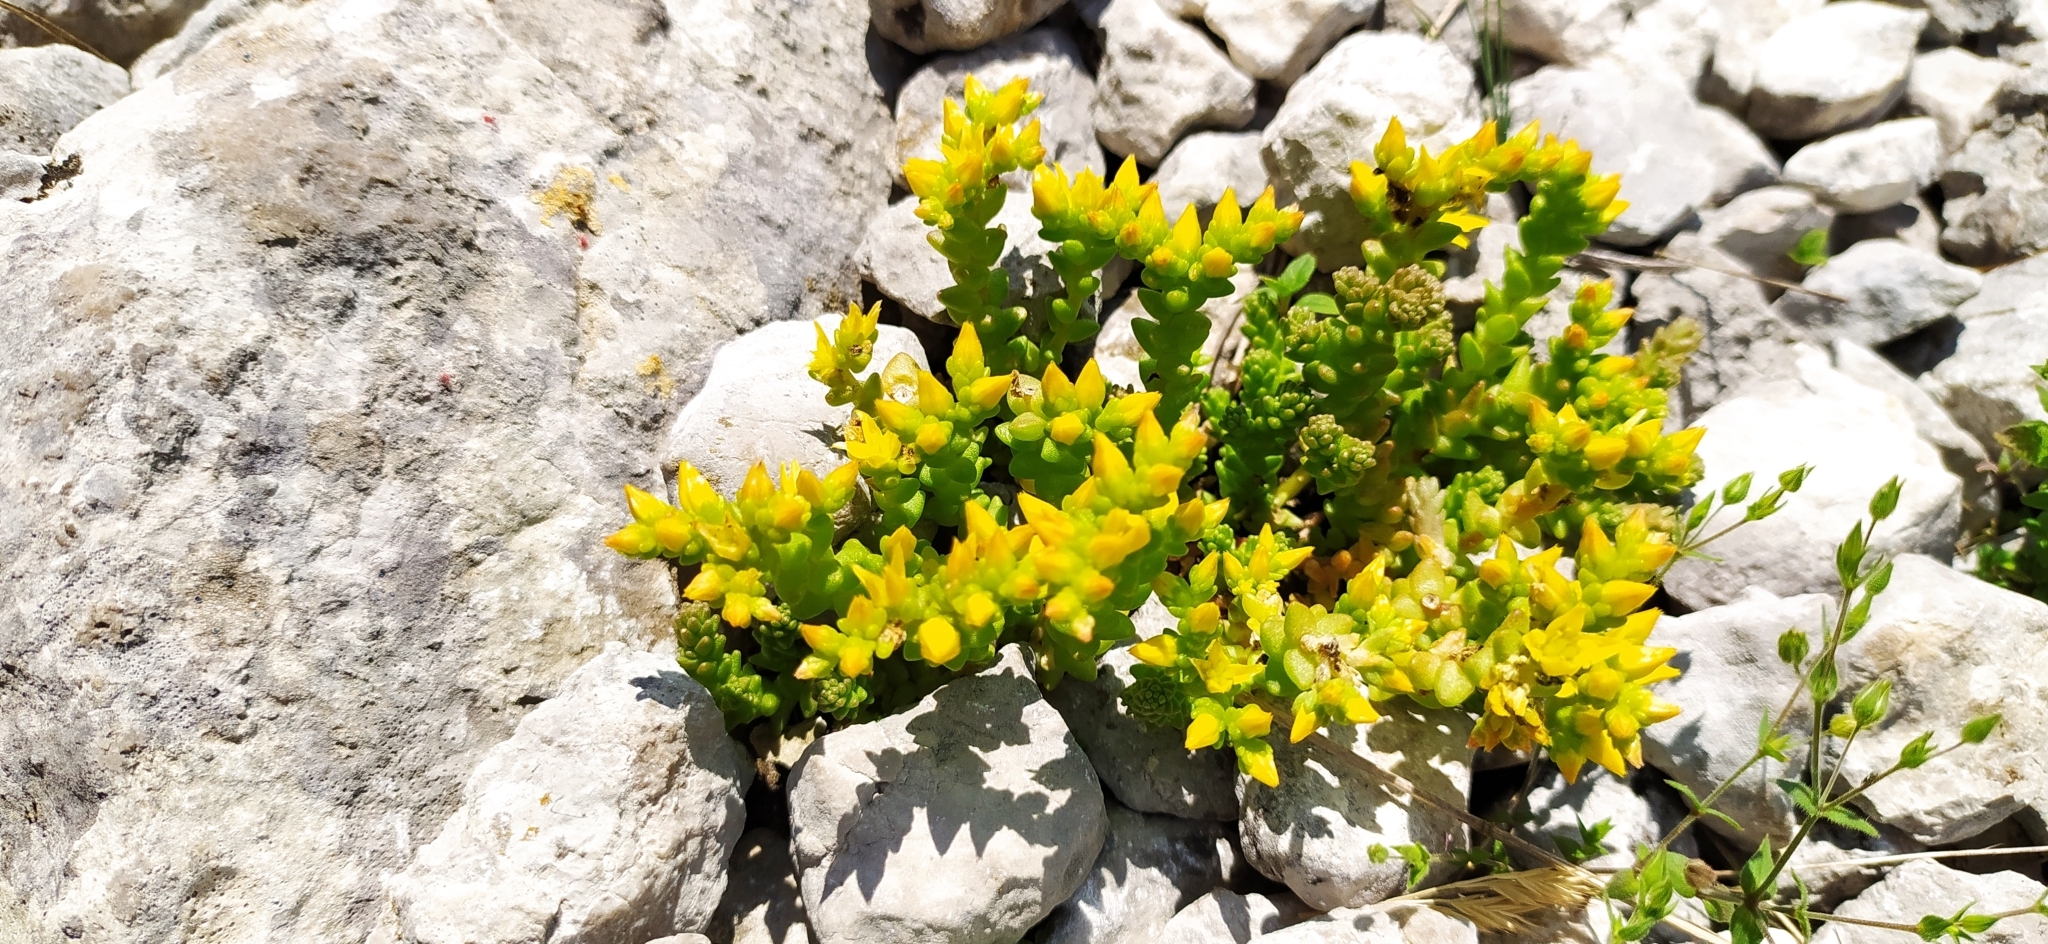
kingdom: Plantae
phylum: Tracheophyta
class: Magnoliopsida
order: Saxifragales
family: Crassulaceae
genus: Sedum
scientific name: Sedum acre
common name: Biting stonecrop
